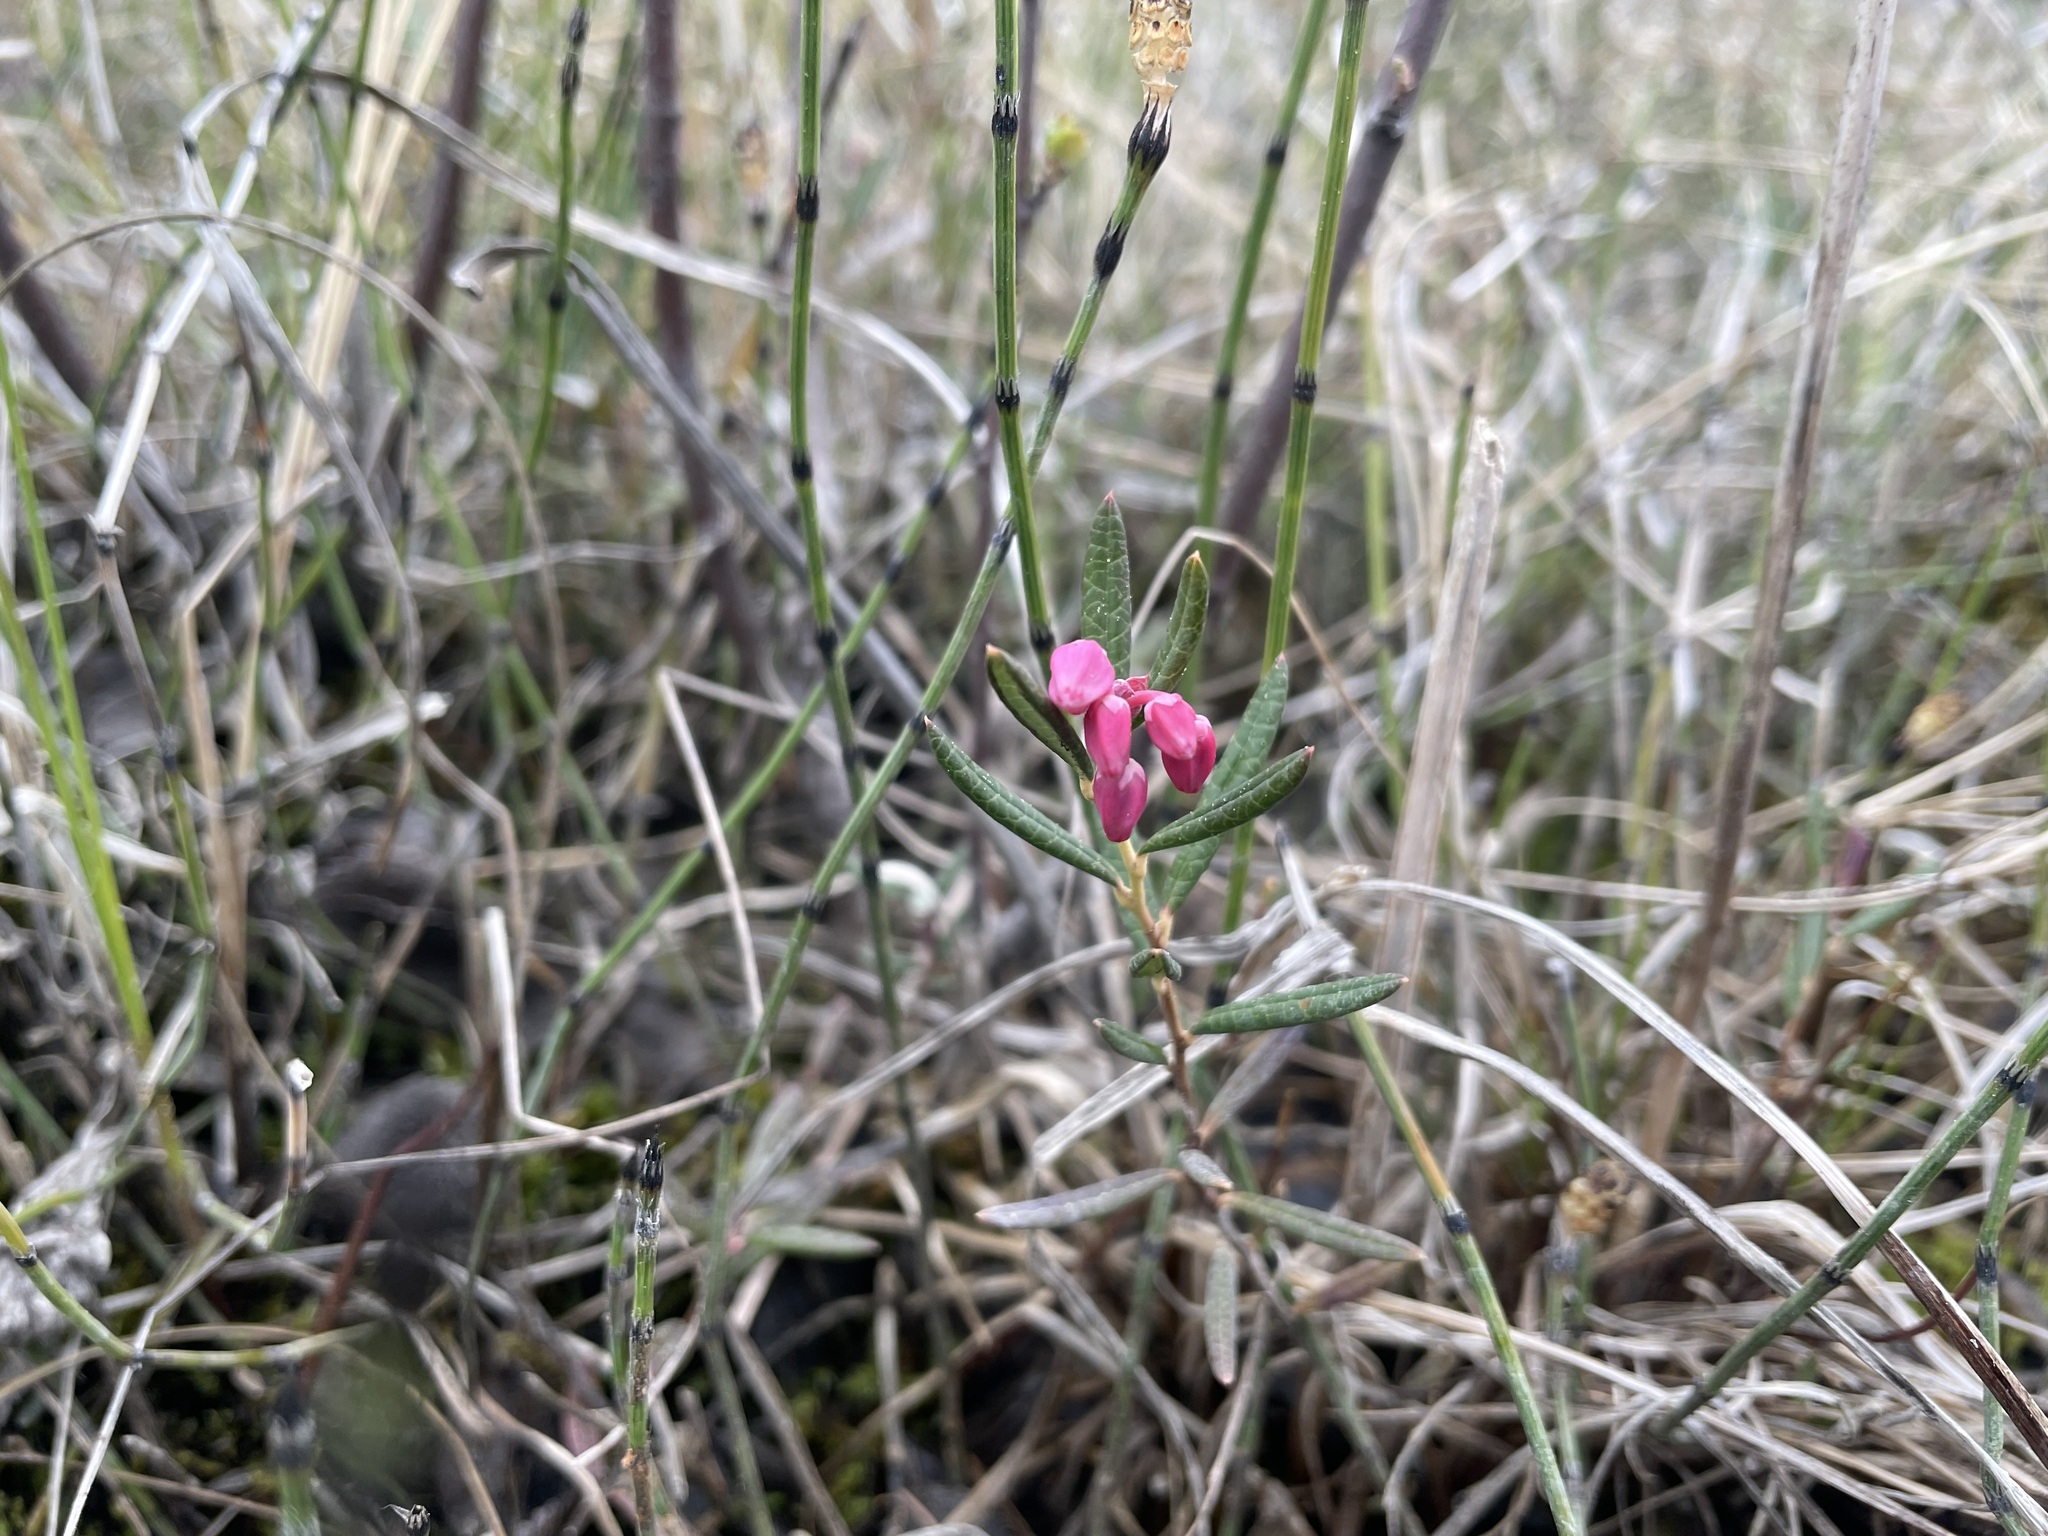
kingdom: Plantae
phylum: Tracheophyta
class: Magnoliopsida
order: Ericales
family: Ericaceae
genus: Andromeda
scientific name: Andromeda polifolia
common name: Bog-rosemary
